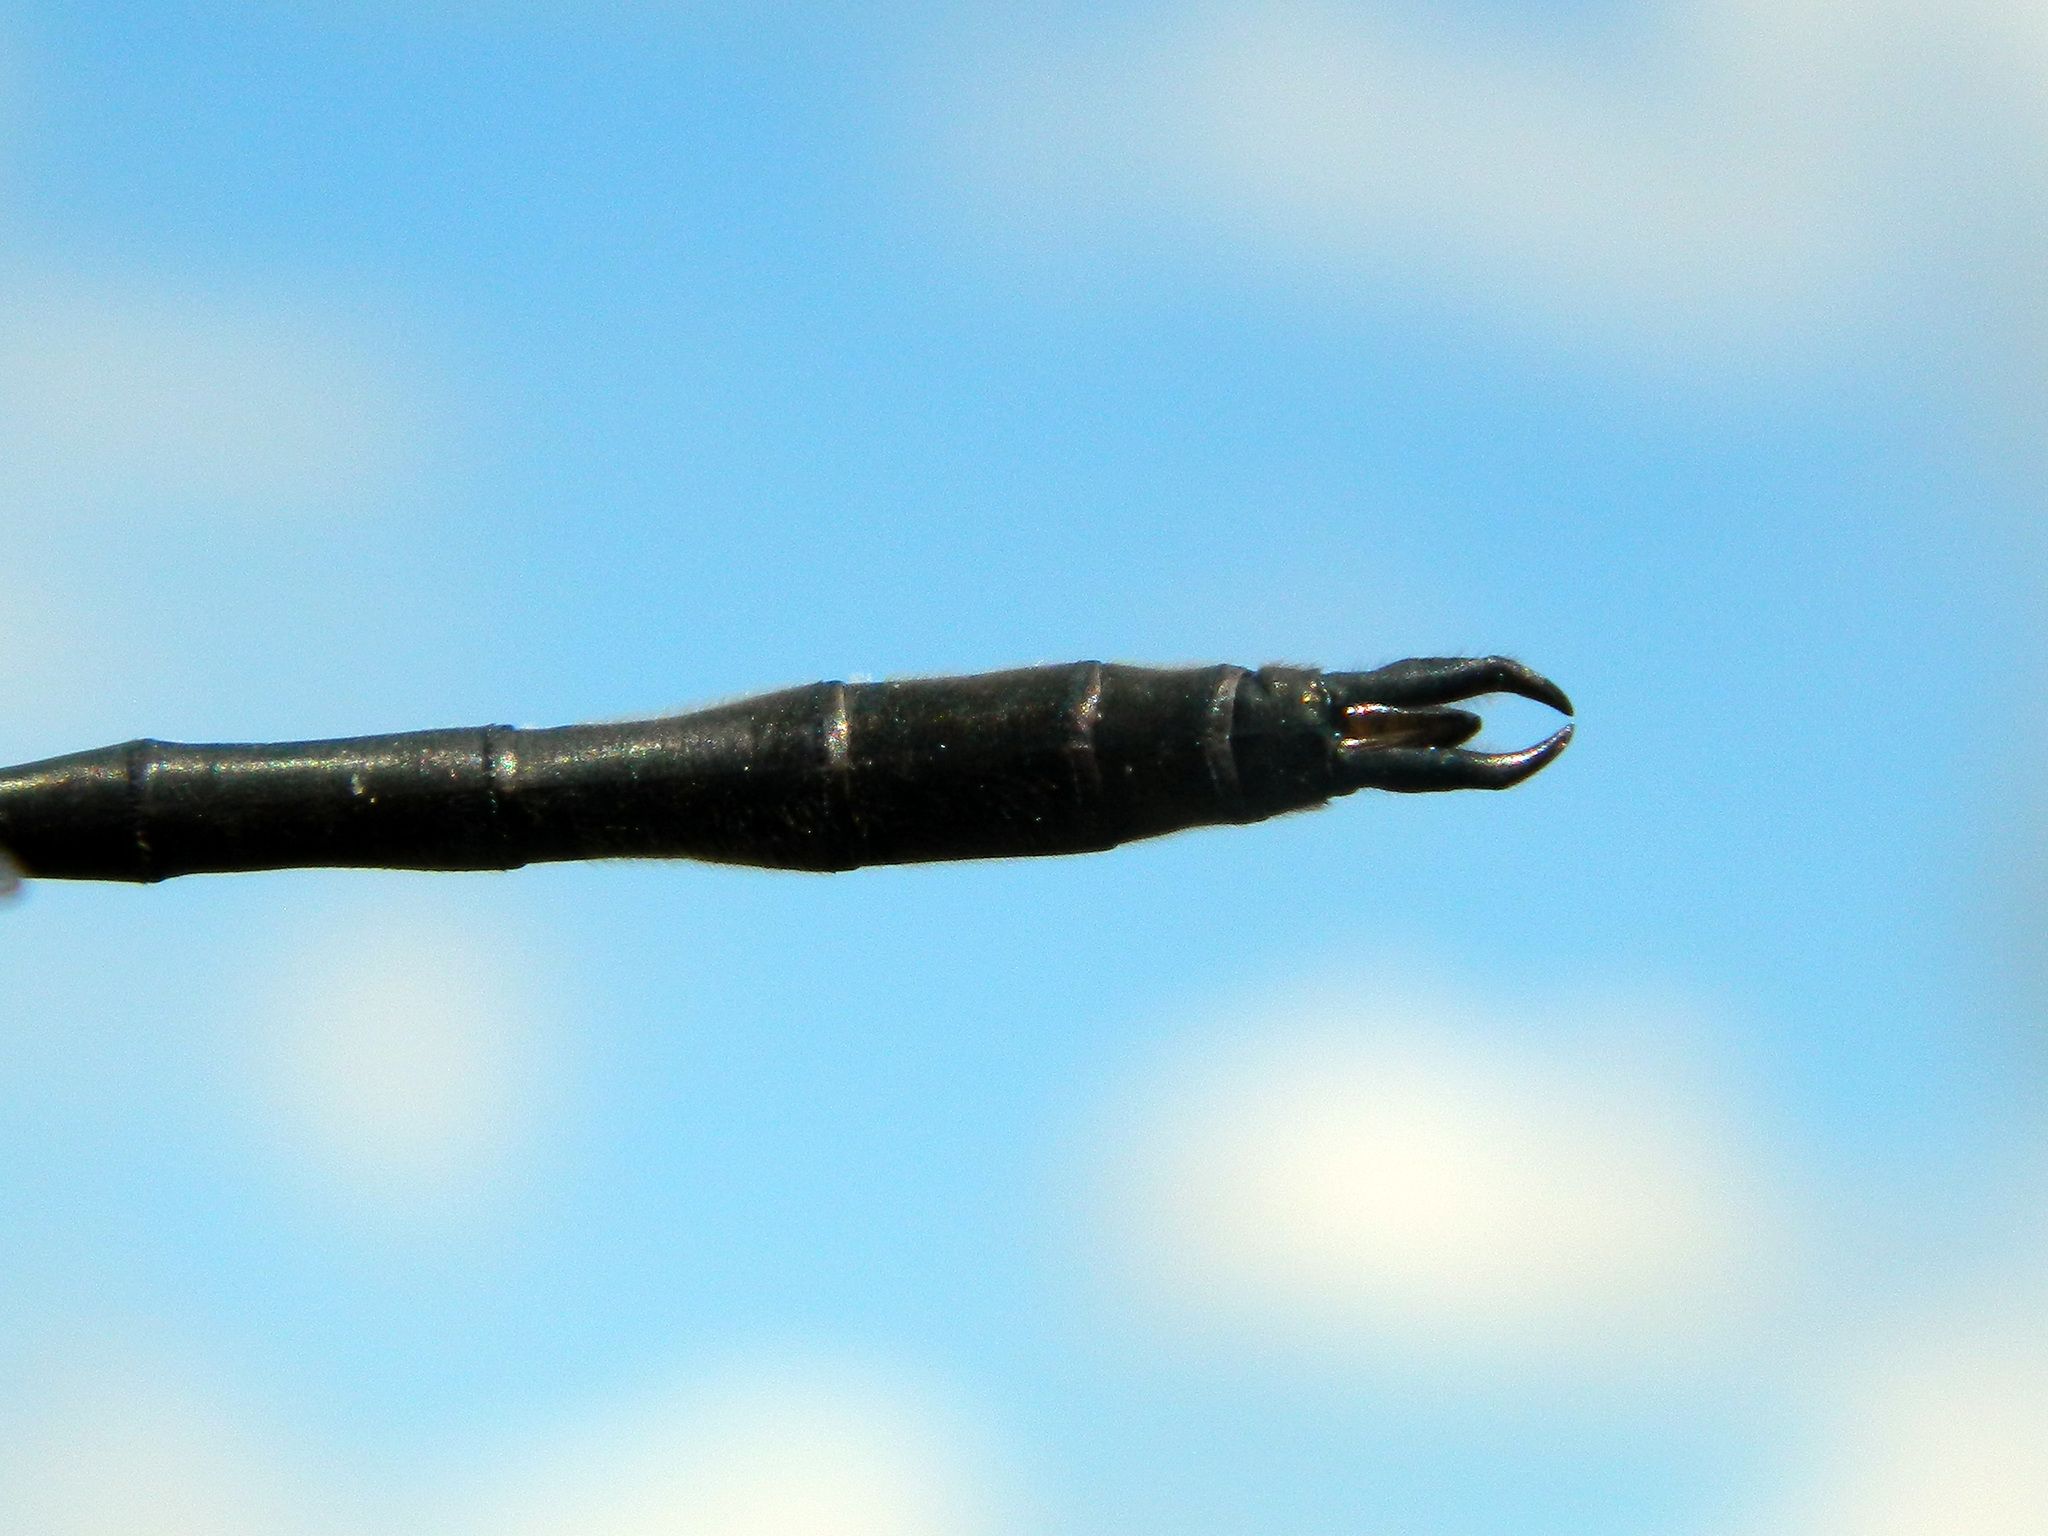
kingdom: Animalia
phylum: Arthropoda
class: Insecta
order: Odonata
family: Corduliidae
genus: Somatochlora
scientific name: Somatochlora franklini
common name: Delicate emerald
